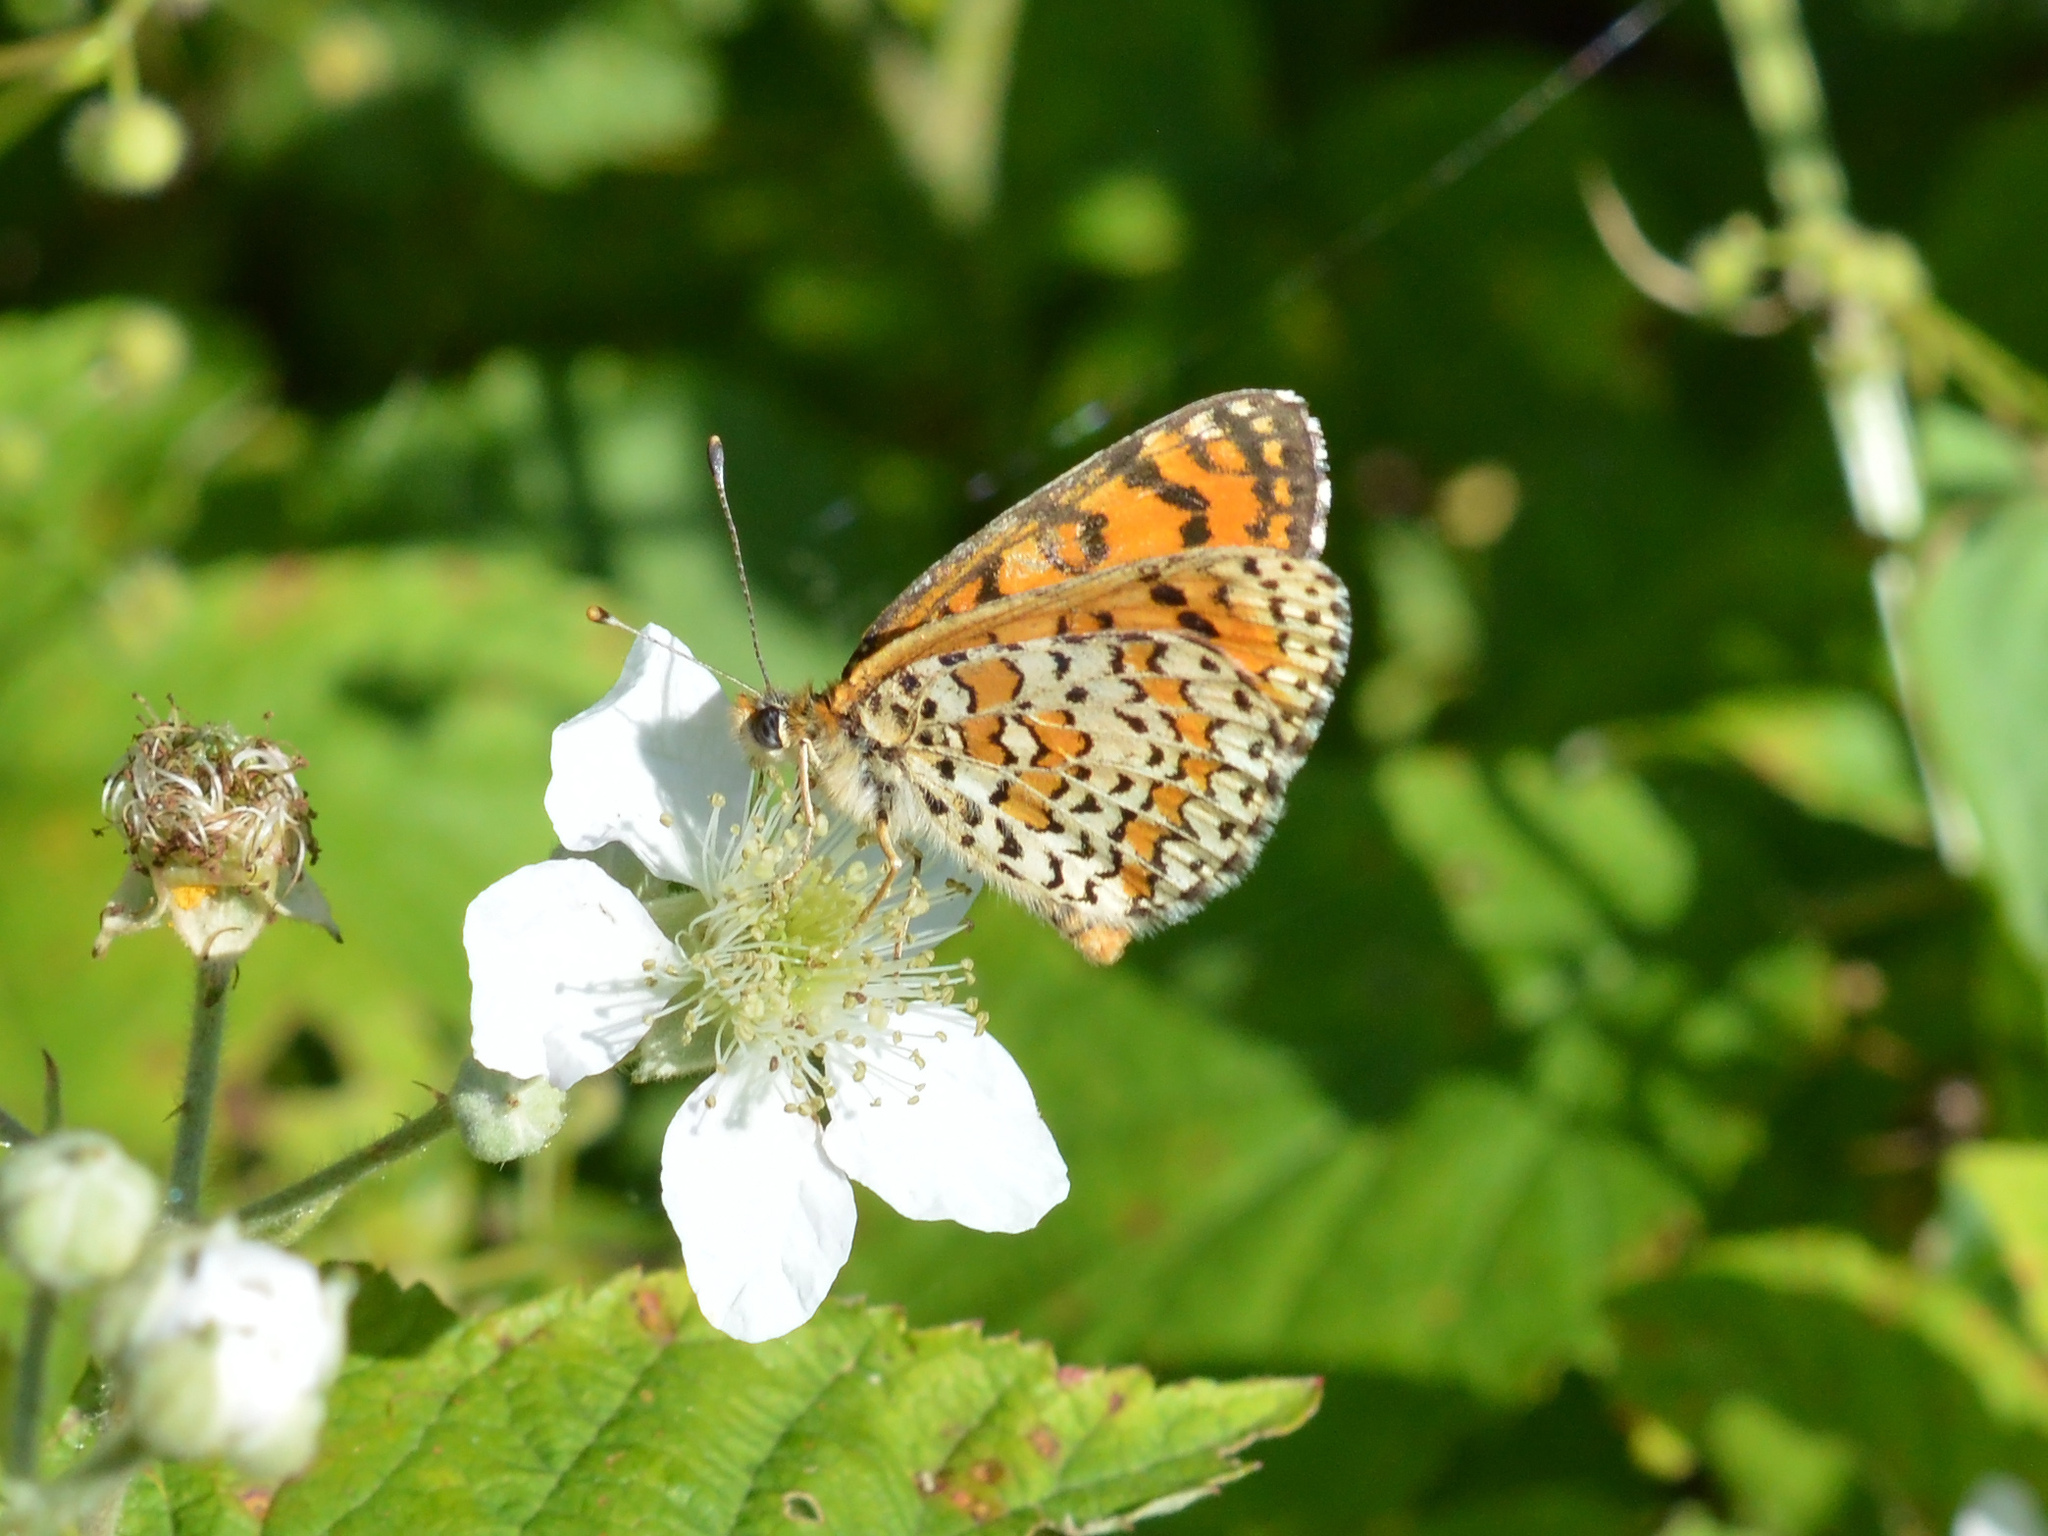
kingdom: Animalia
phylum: Arthropoda
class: Insecta
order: Lepidoptera
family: Nymphalidae
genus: Melitaea
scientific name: Melitaea trivia
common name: Lesser spotted fritillary
